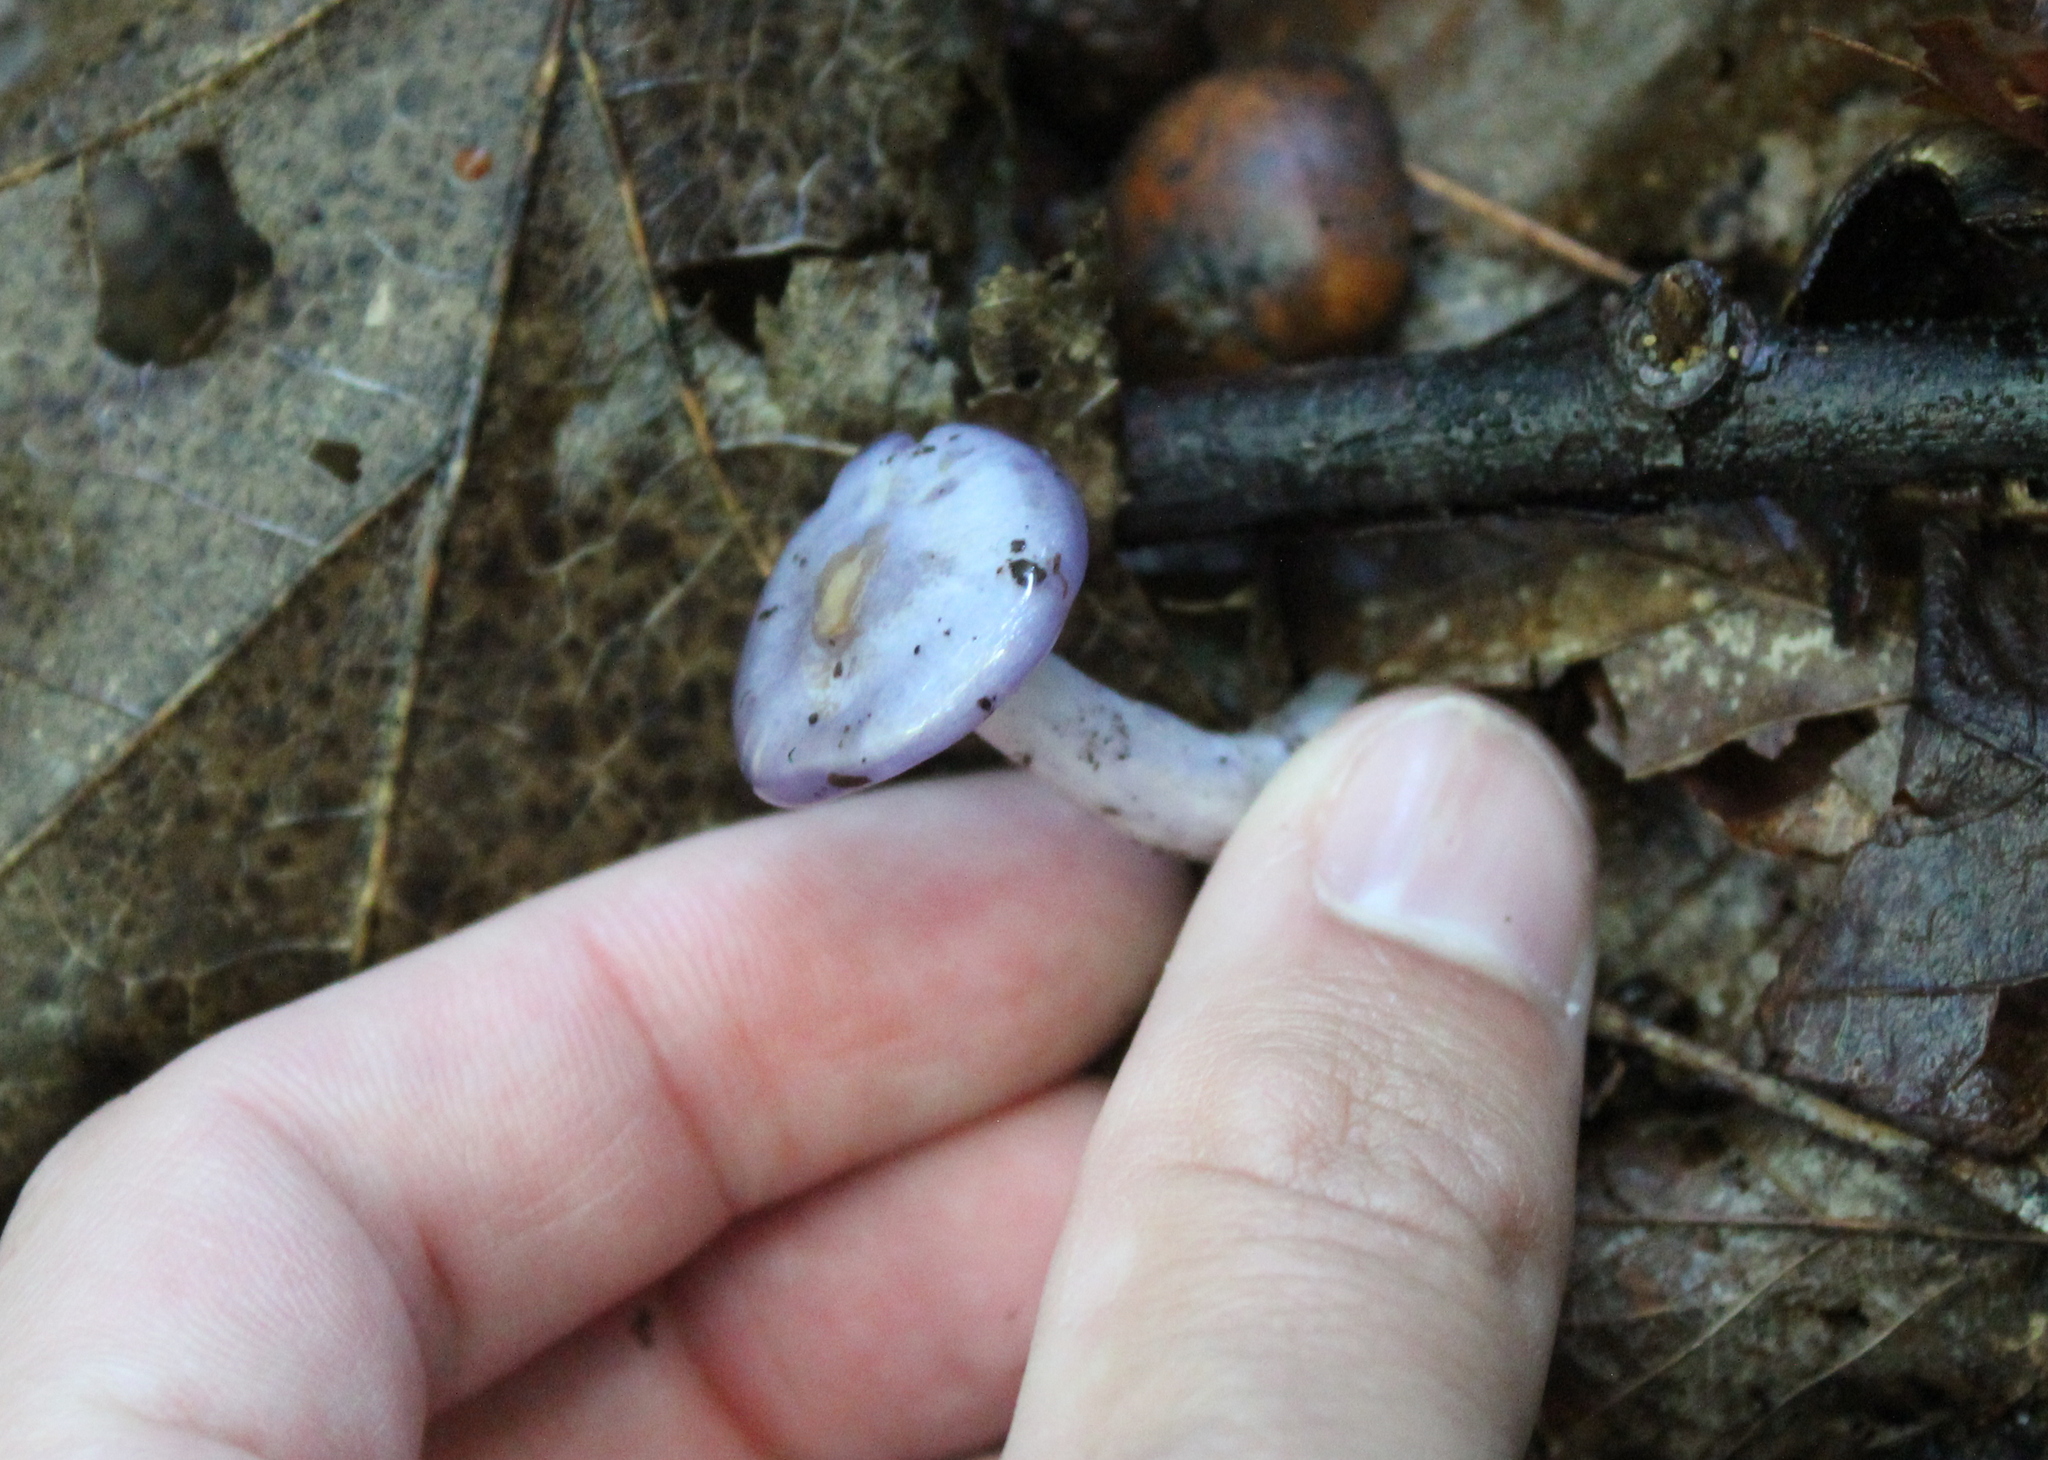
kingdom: Fungi
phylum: Basidiomycota
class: Agaricomycetes
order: Agaricales
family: Cortinariaceae
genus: Cortinarius
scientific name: Cortinarius iodes
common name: Viscid violet cort
